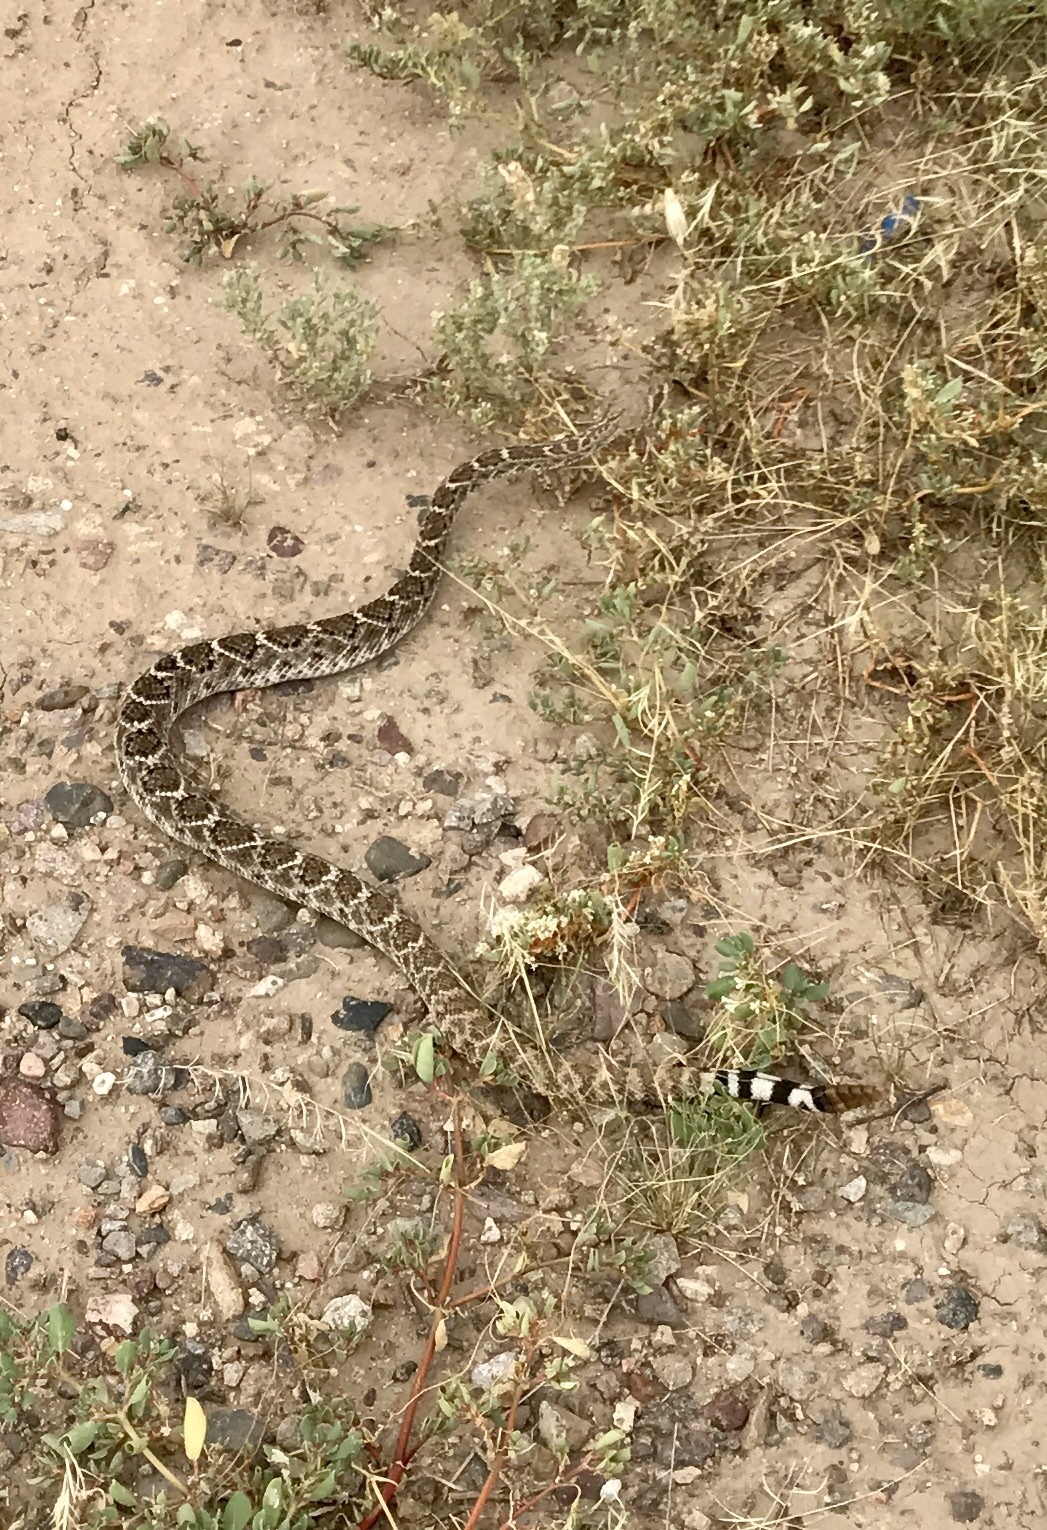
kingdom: Animalia
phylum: Chordata
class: Squamata
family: Viperidae
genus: Crotalus
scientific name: Crotalus atrox
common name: Western diamond-backed rattlesnake
